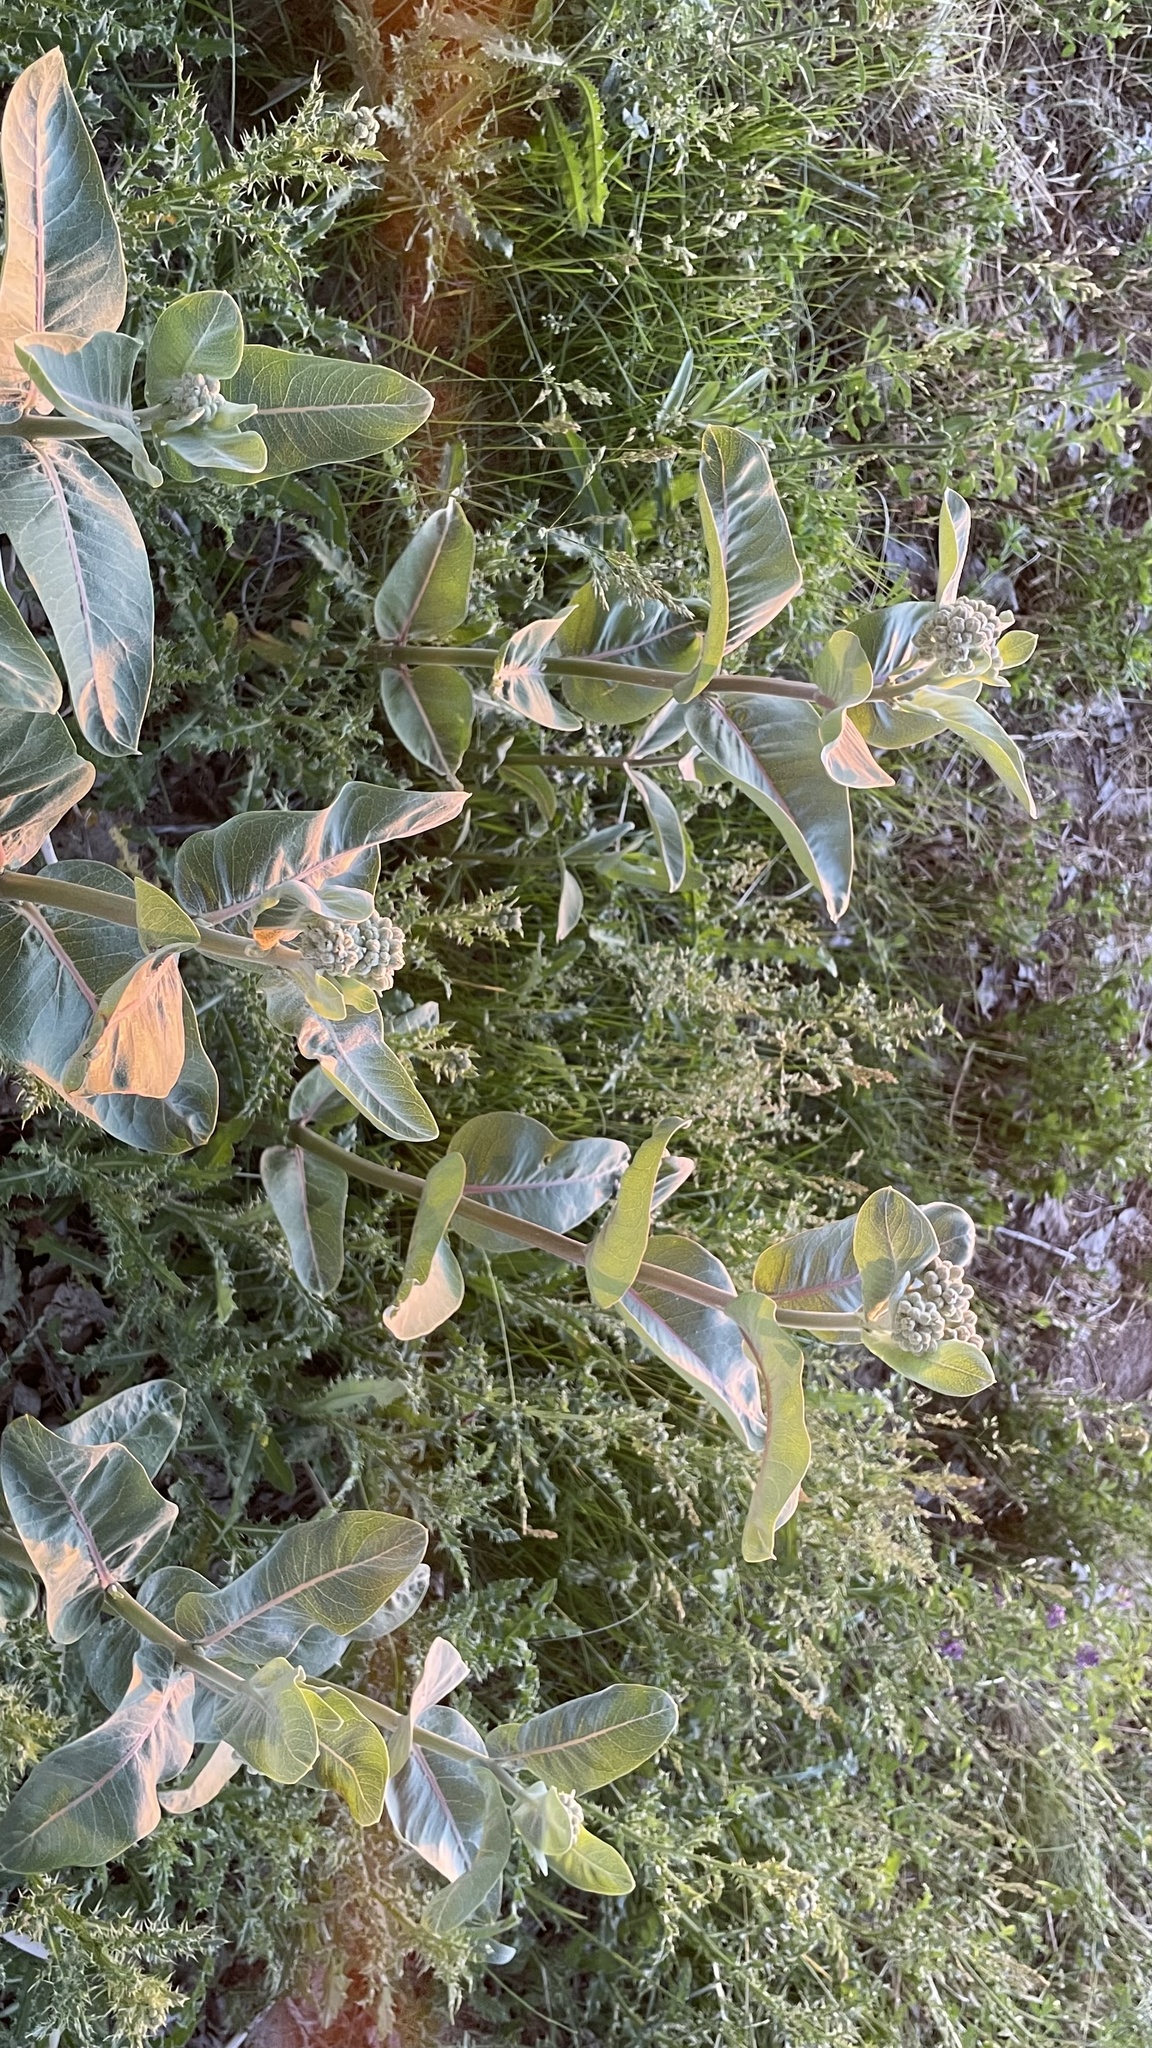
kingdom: Plantae
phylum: Tracheophyta
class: Magnoliopsida
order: Gentianales
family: Apocynaceae
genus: Asclepias
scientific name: Asclepias speciosa
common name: Showy milkweed
